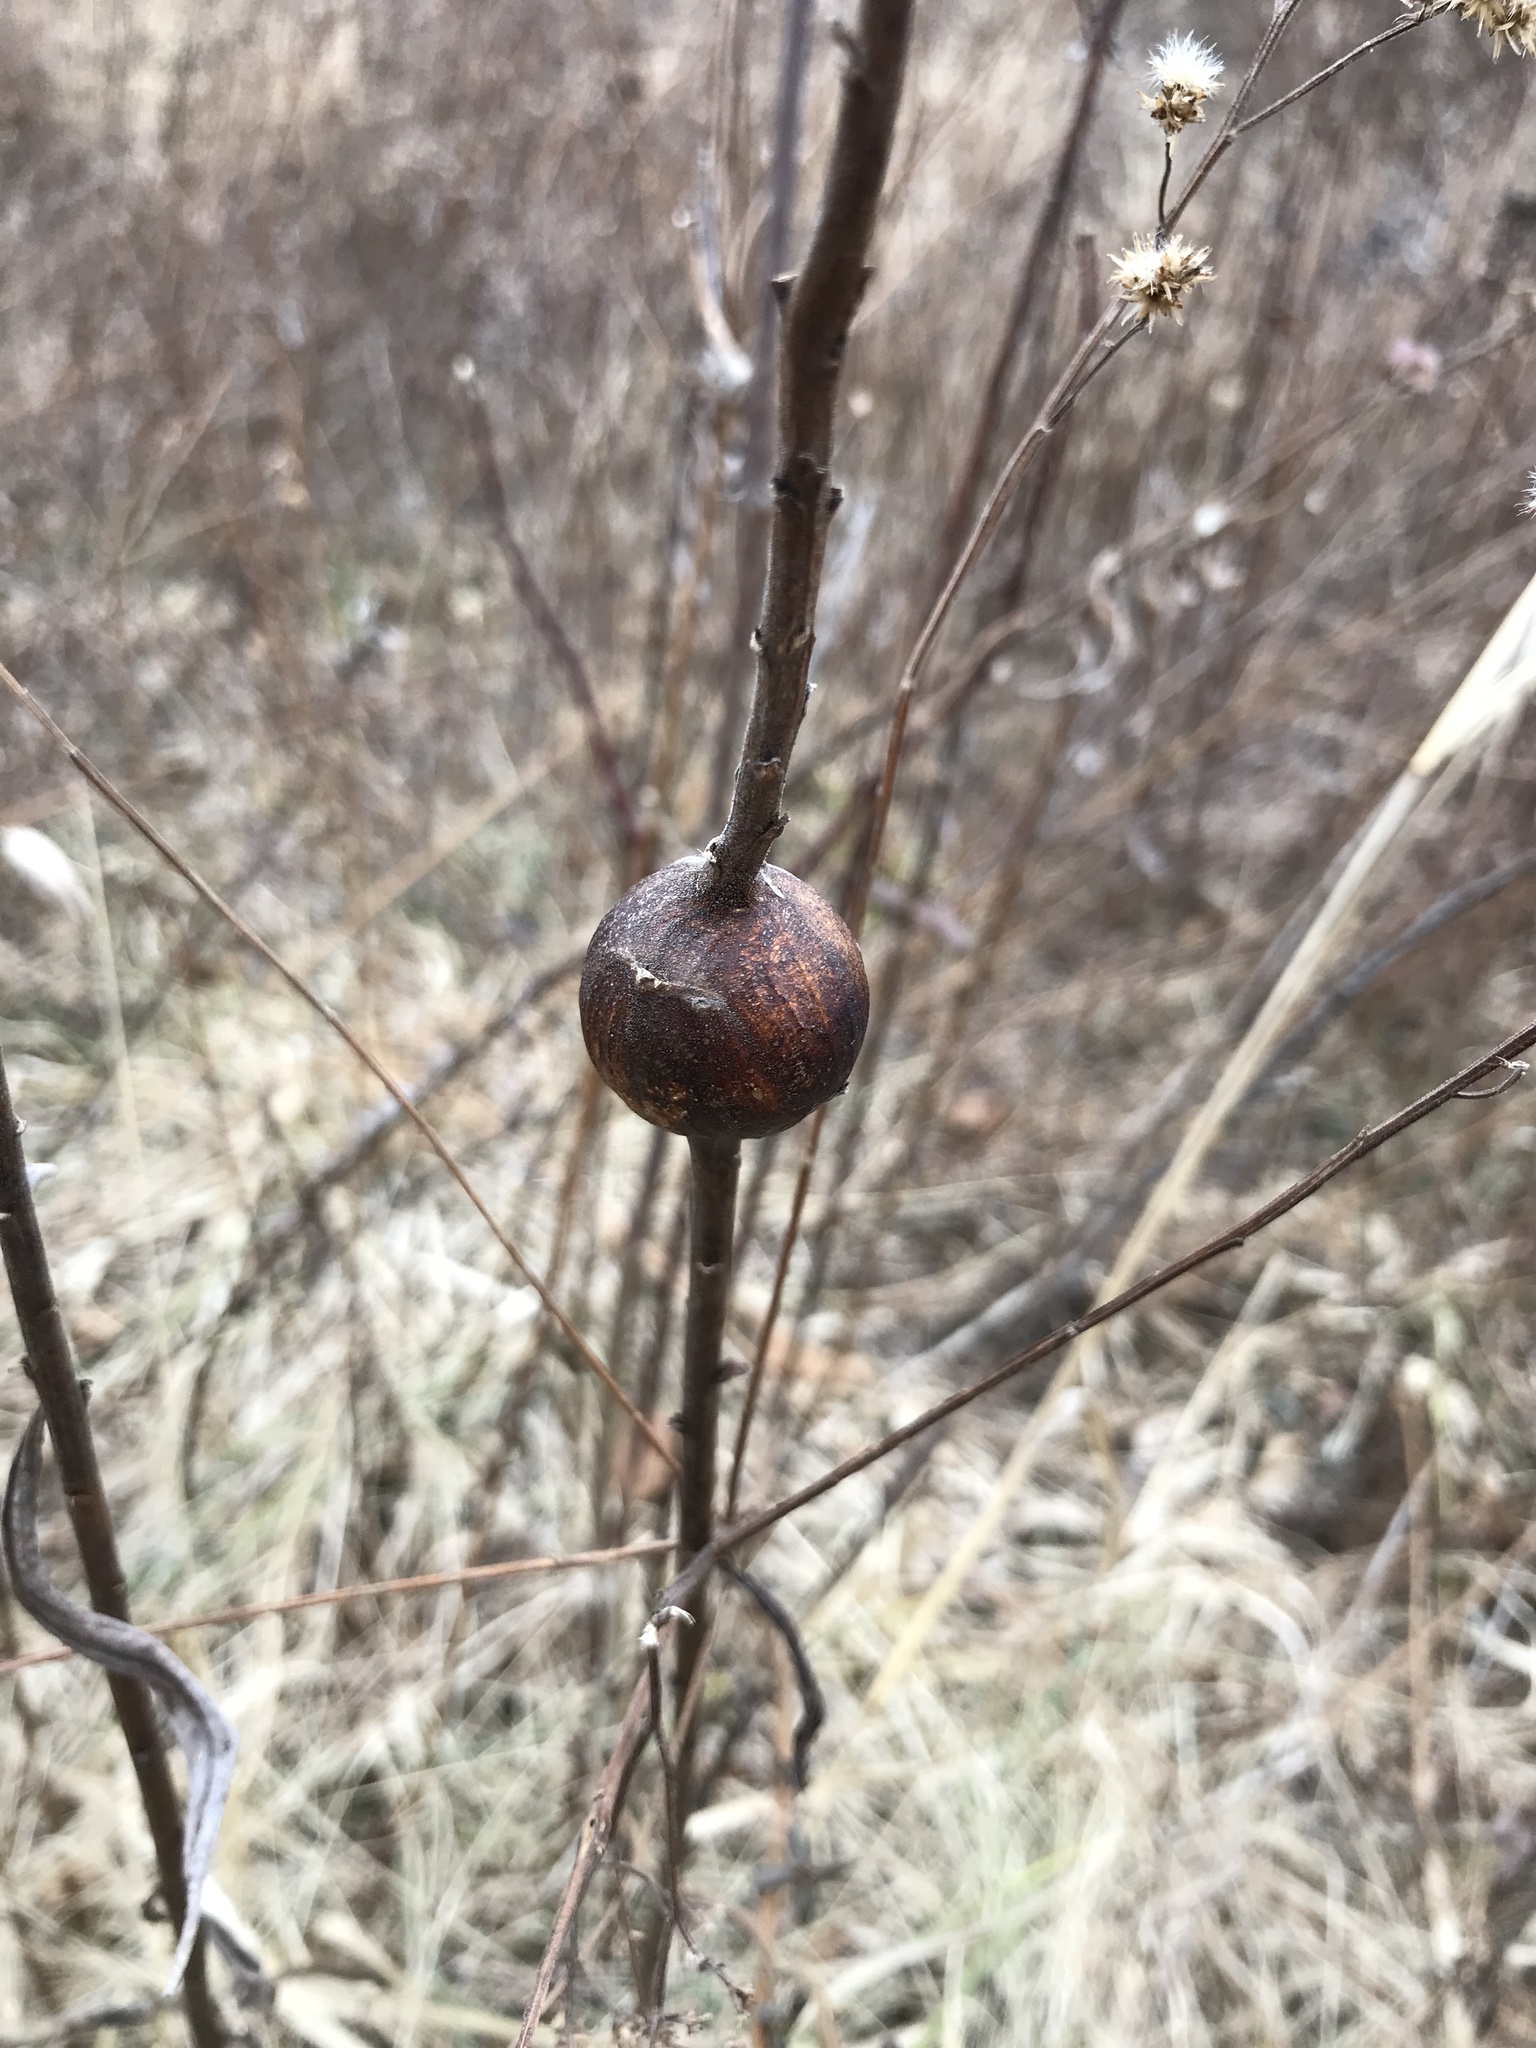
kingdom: Animalia
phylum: Arthropoda
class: Insecta
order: Diptera
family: Tephritidae
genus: Eurosta
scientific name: Eurosta solidaginis
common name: Goldenrod gall fly
